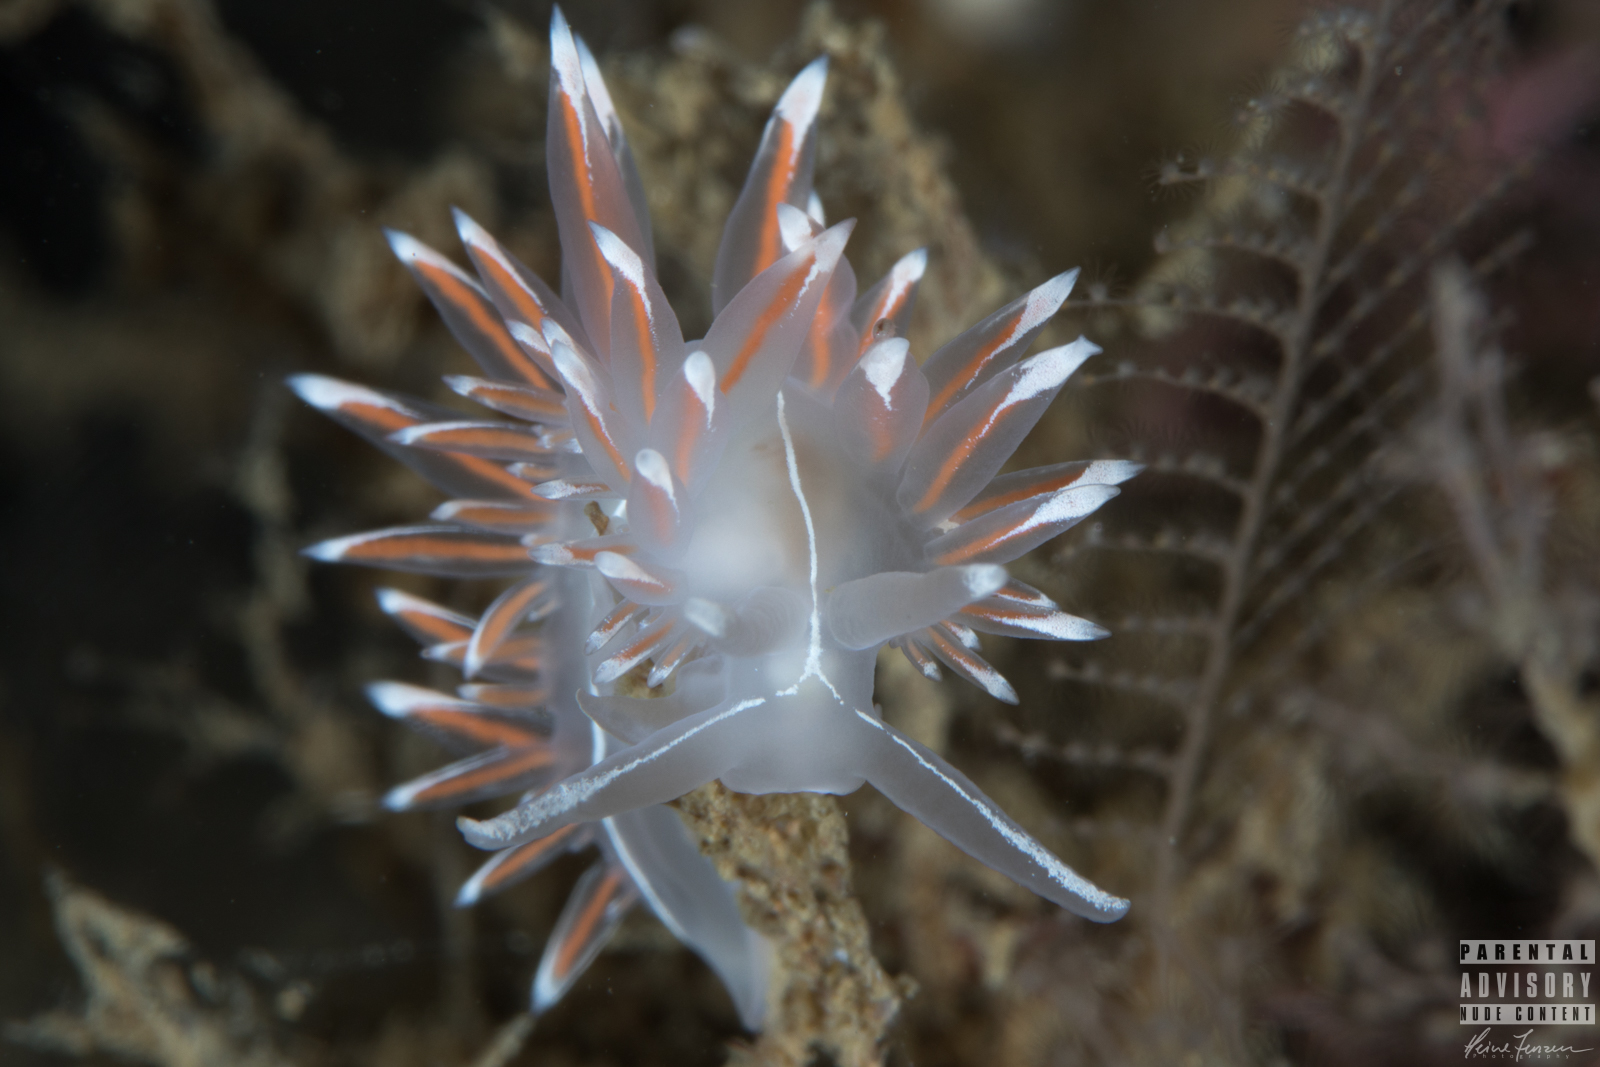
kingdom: Animalia
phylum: Mollusca
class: Gastropoda
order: Nudibranchia
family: Coryphellidae
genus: Coryphella
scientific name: Coryphella lineata
